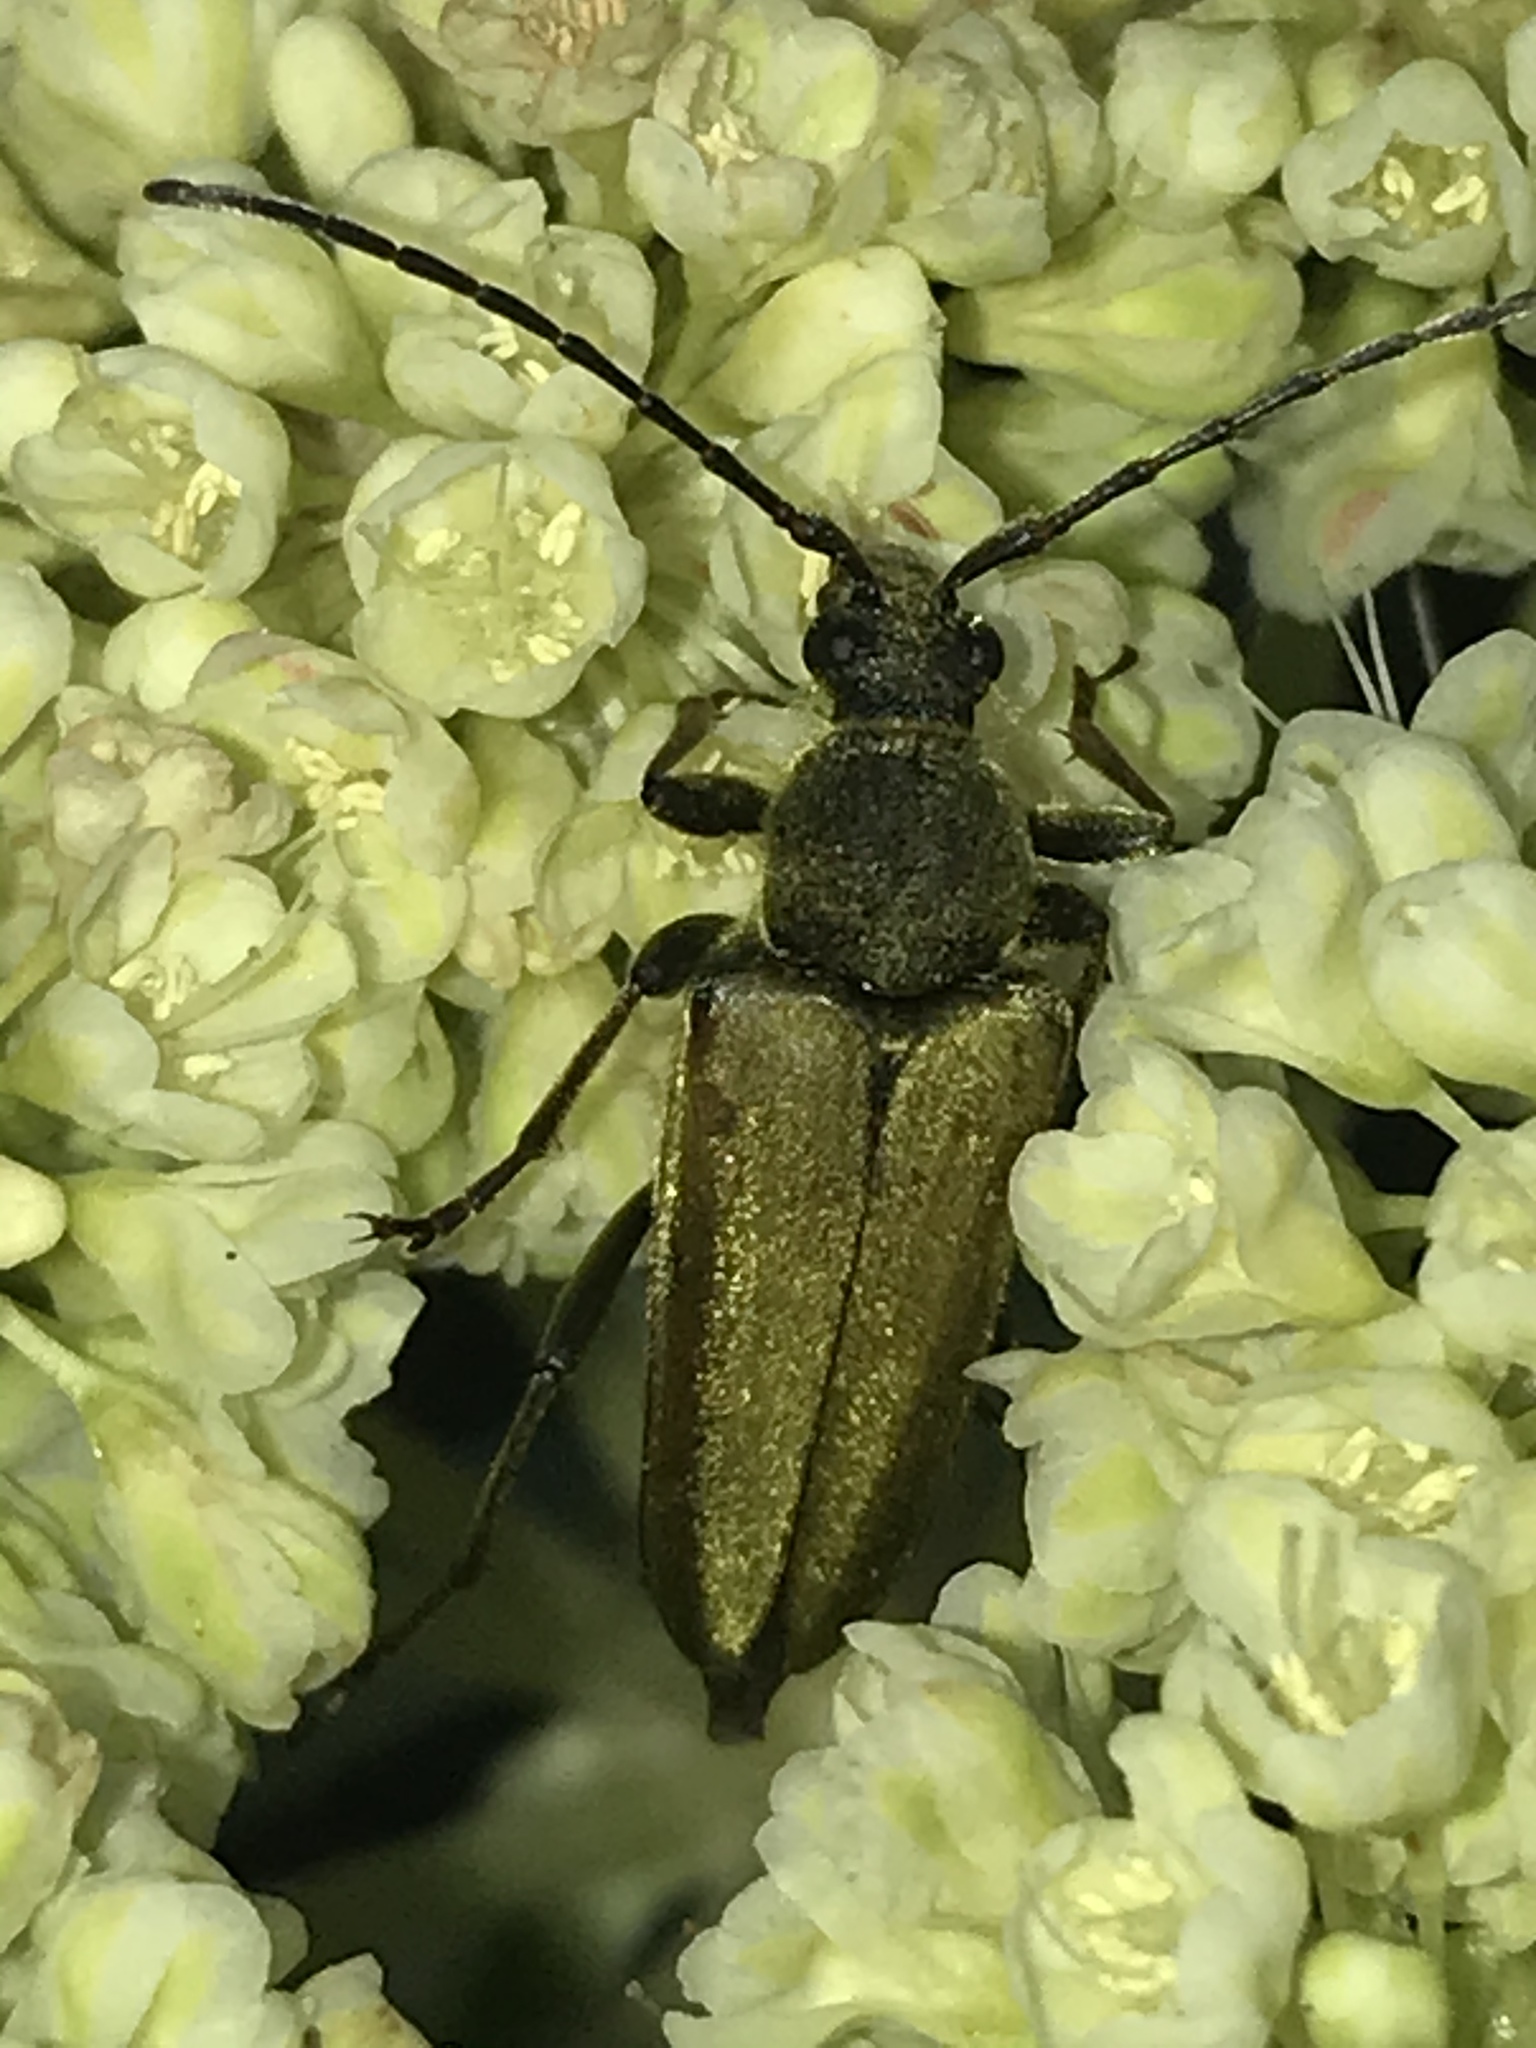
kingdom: Animalia
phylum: Arthropoda
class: Insecta
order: Coleoptera
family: Cerambycidae
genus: Cosmosalia
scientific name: Cosmosalia chrysocoma
